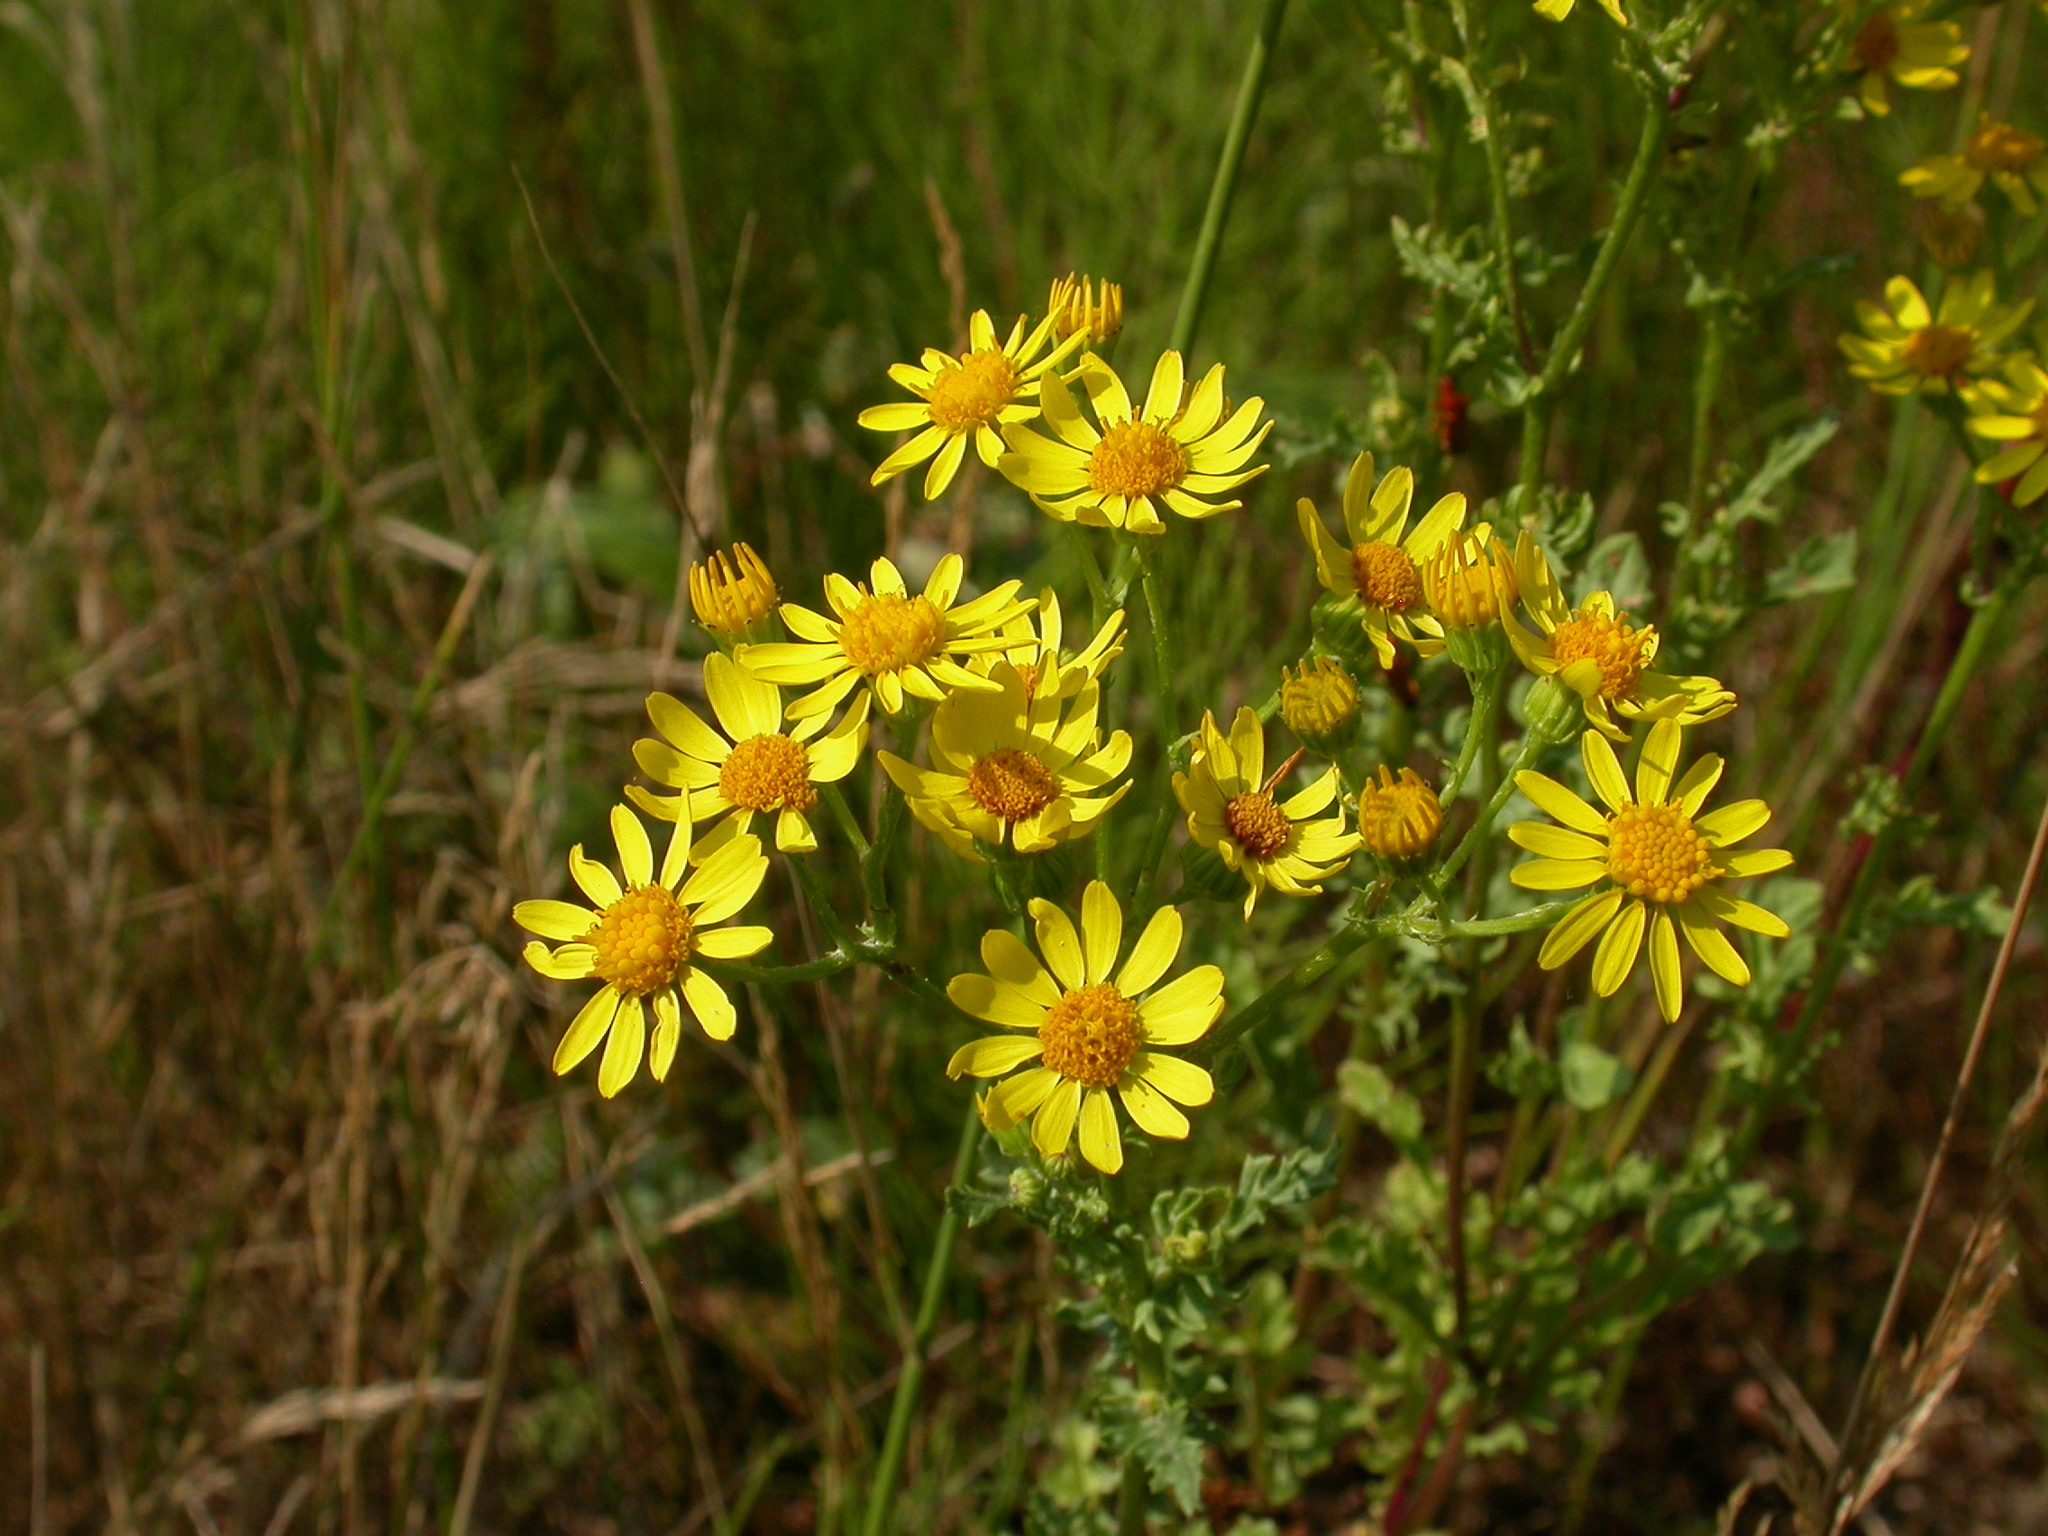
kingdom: Plantae
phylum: Tracheophyta
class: Magnoliopsida
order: Asterales
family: Asteraceae
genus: Jacobaea
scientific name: Jacobaea vulgaris
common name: Stinking willie
